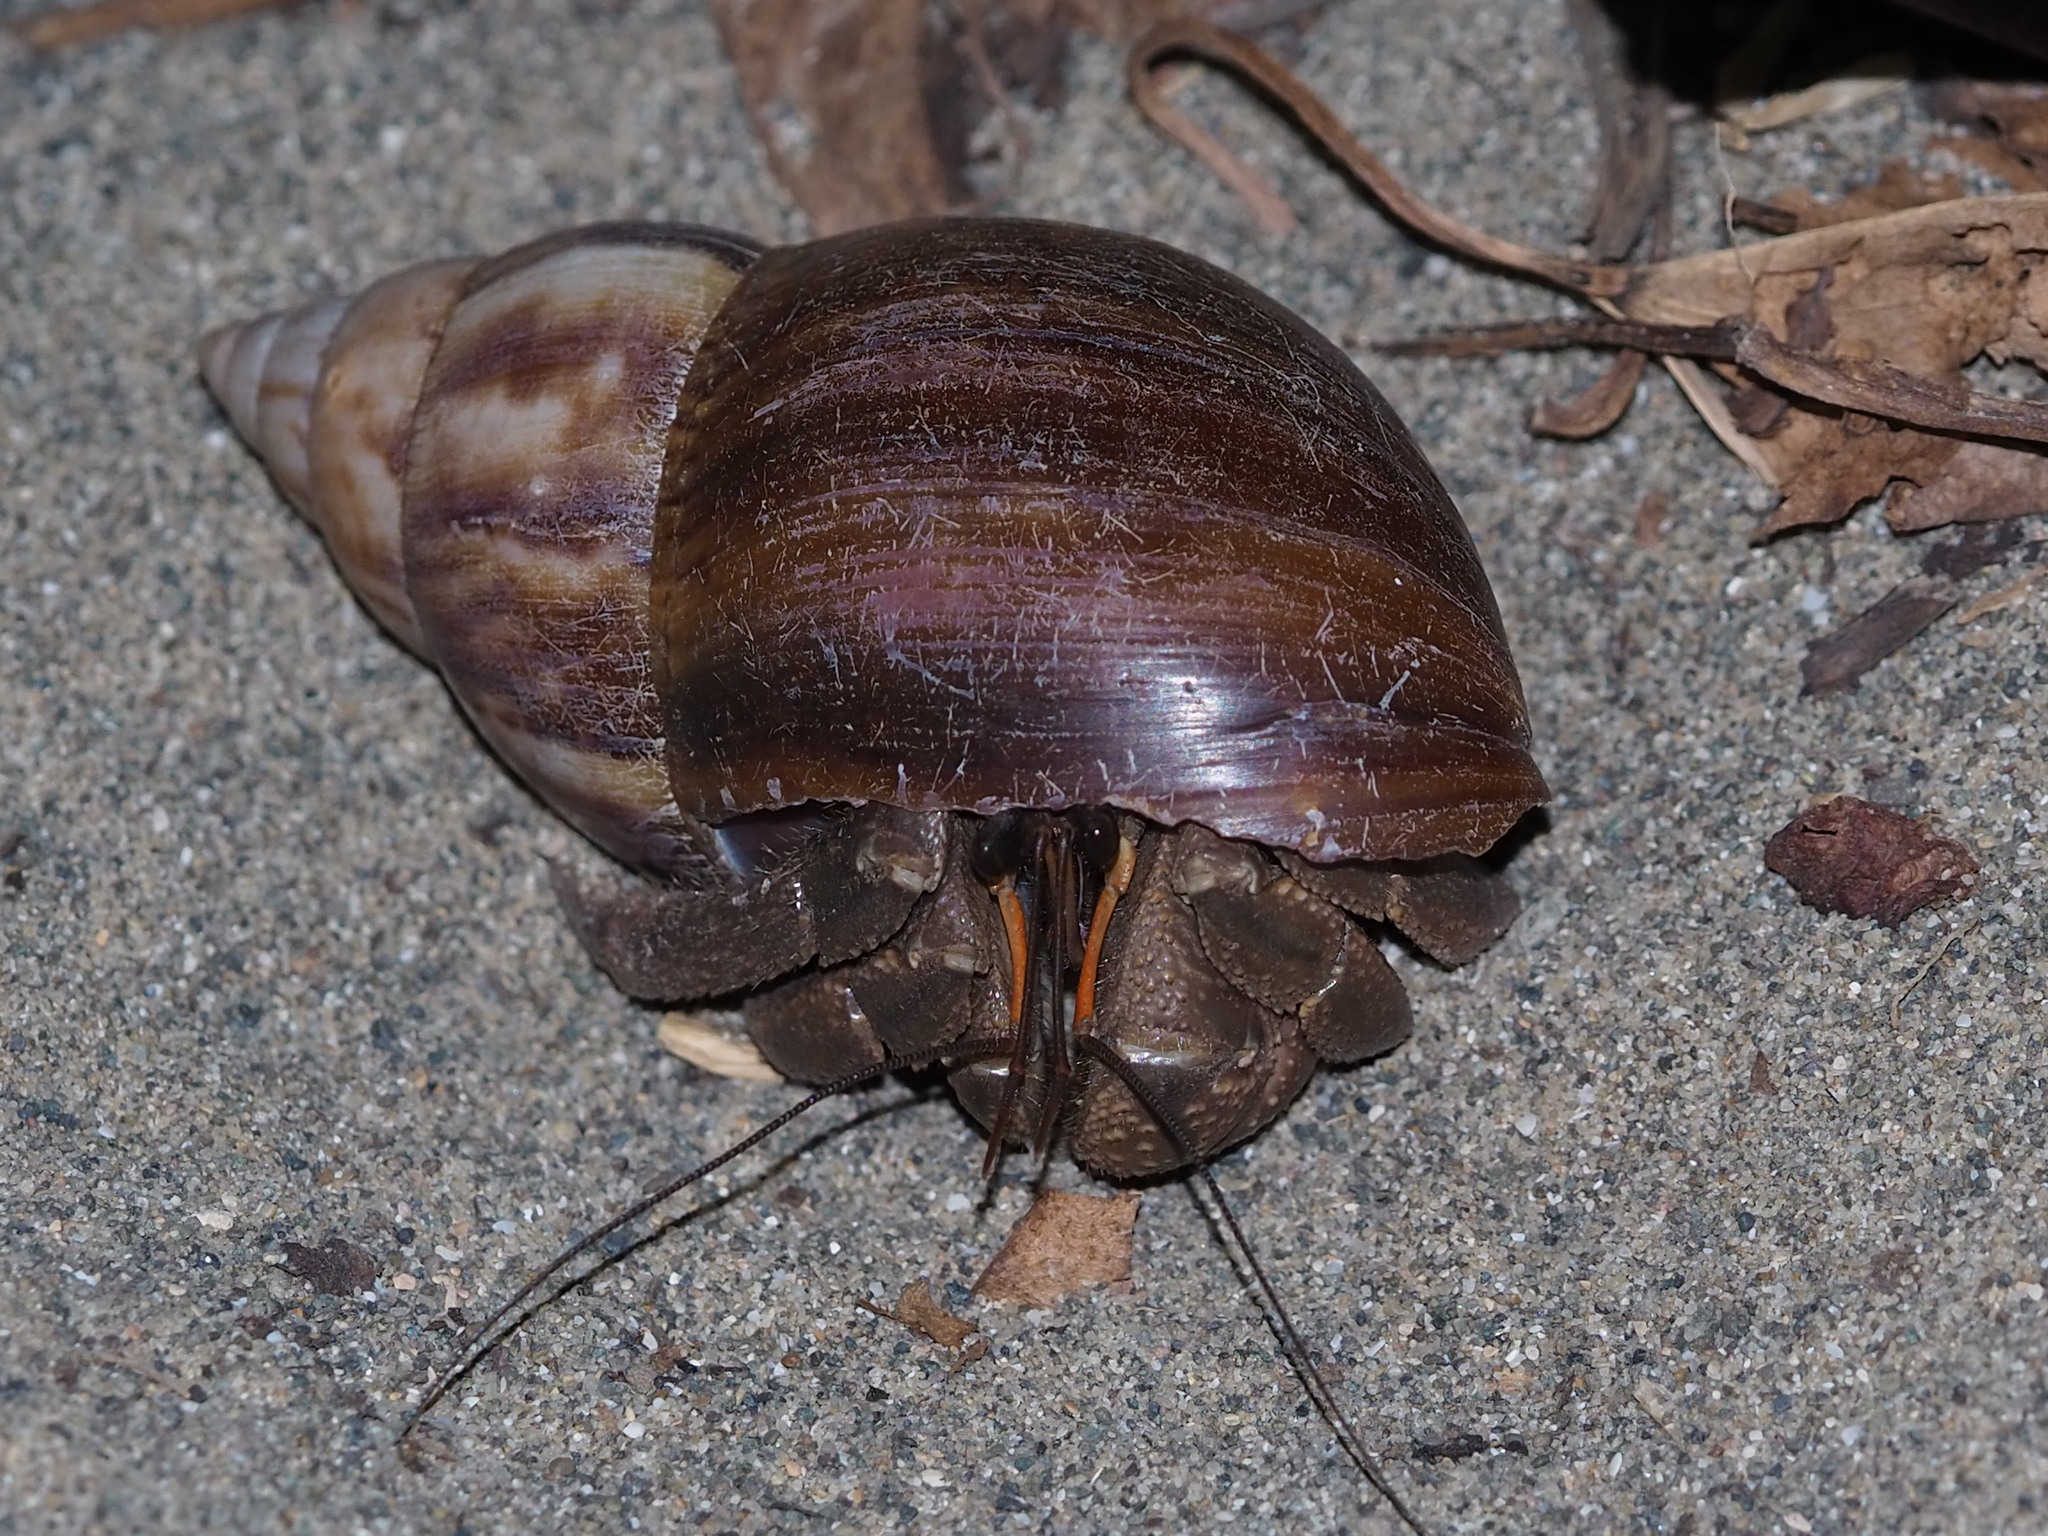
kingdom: Animalia
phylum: Arthropoda
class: Malacostraca
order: Decapoda
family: Coenobitidae
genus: Coenobita
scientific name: Coenobita cavipes
